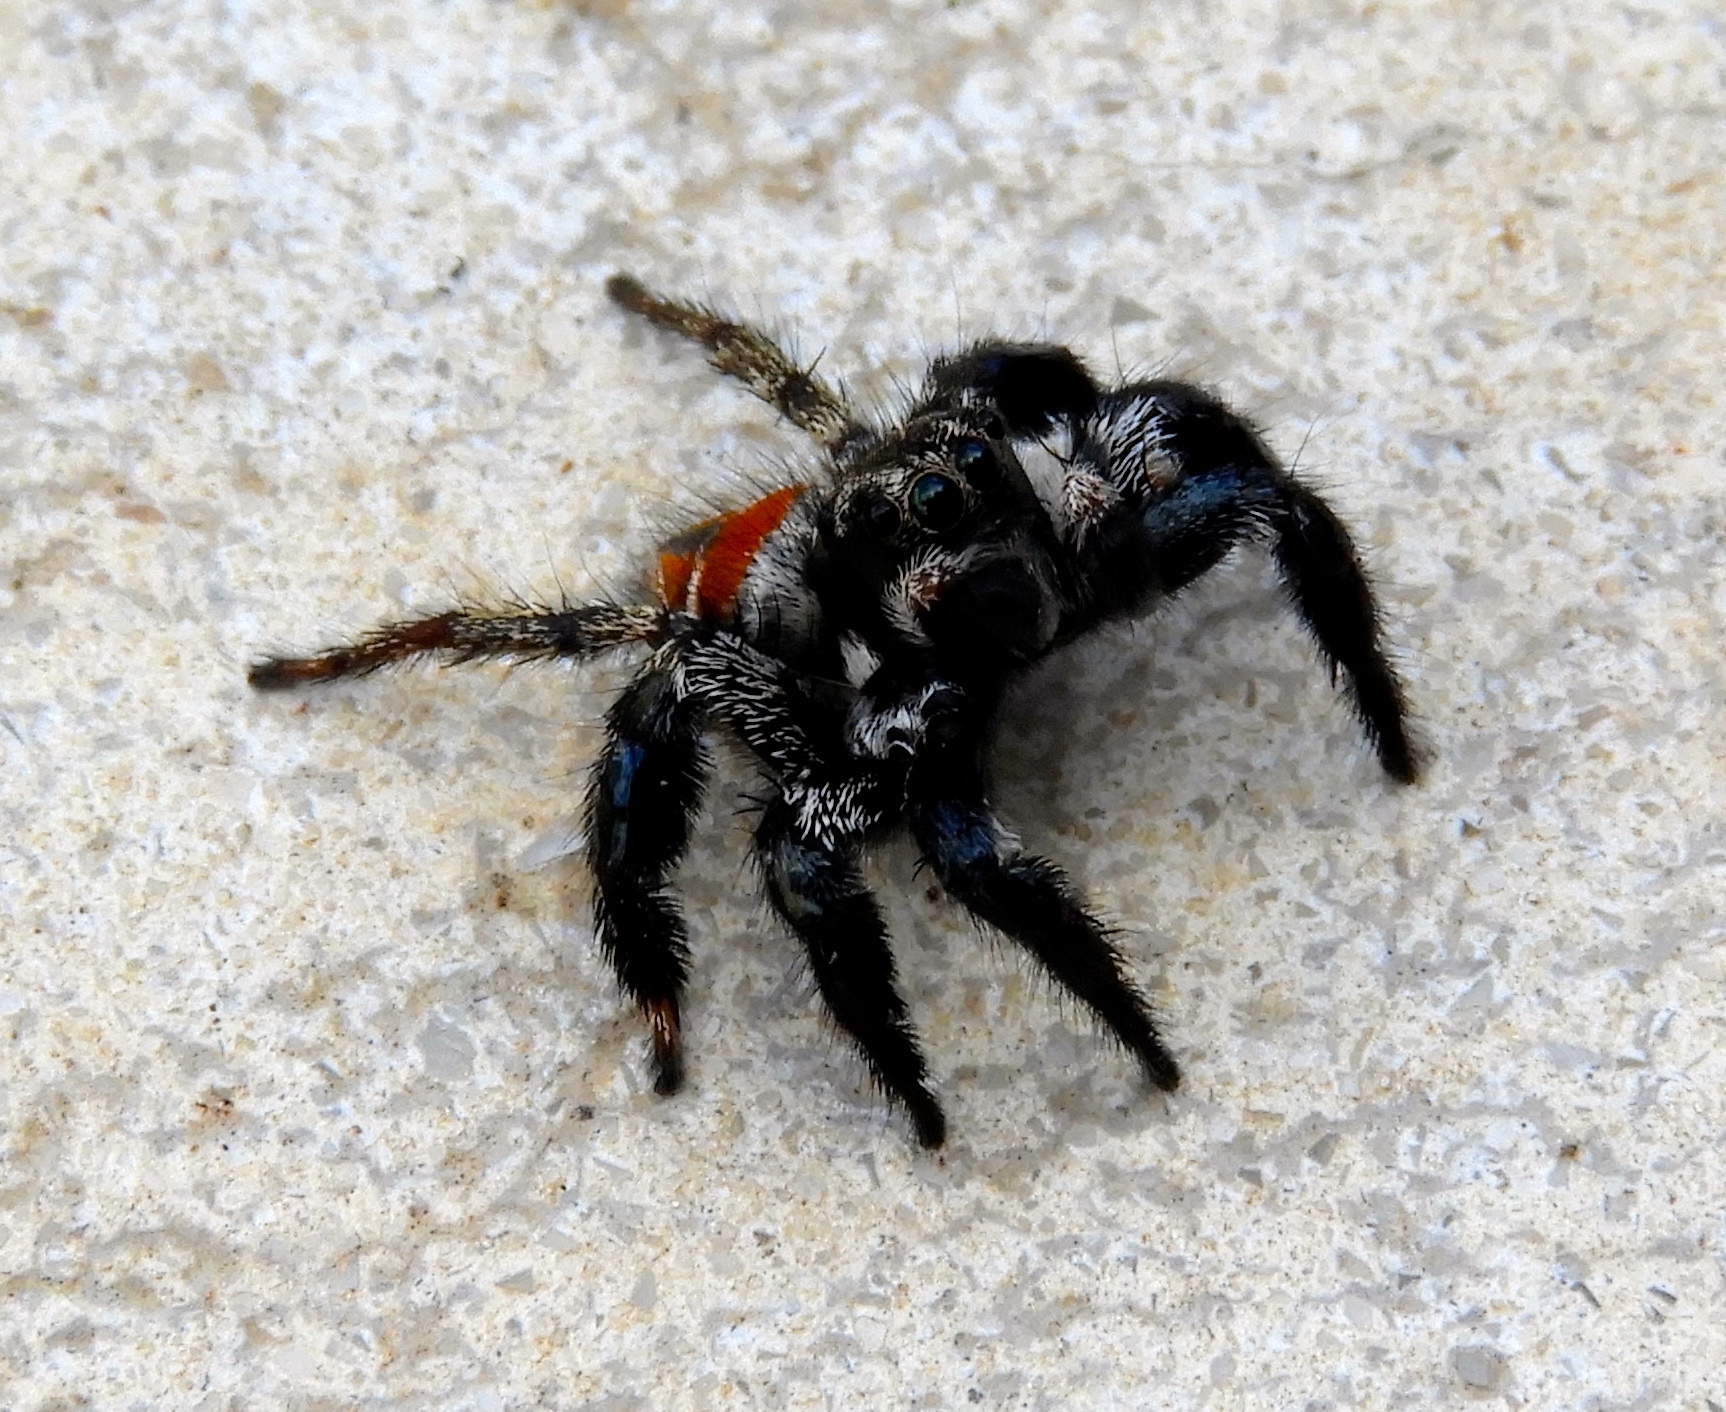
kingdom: Animalia
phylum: Arthropoda
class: Arachnida
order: Araneae
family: Salticidae
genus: Corythalia
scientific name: Corythalia opima
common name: Jumping spiders
